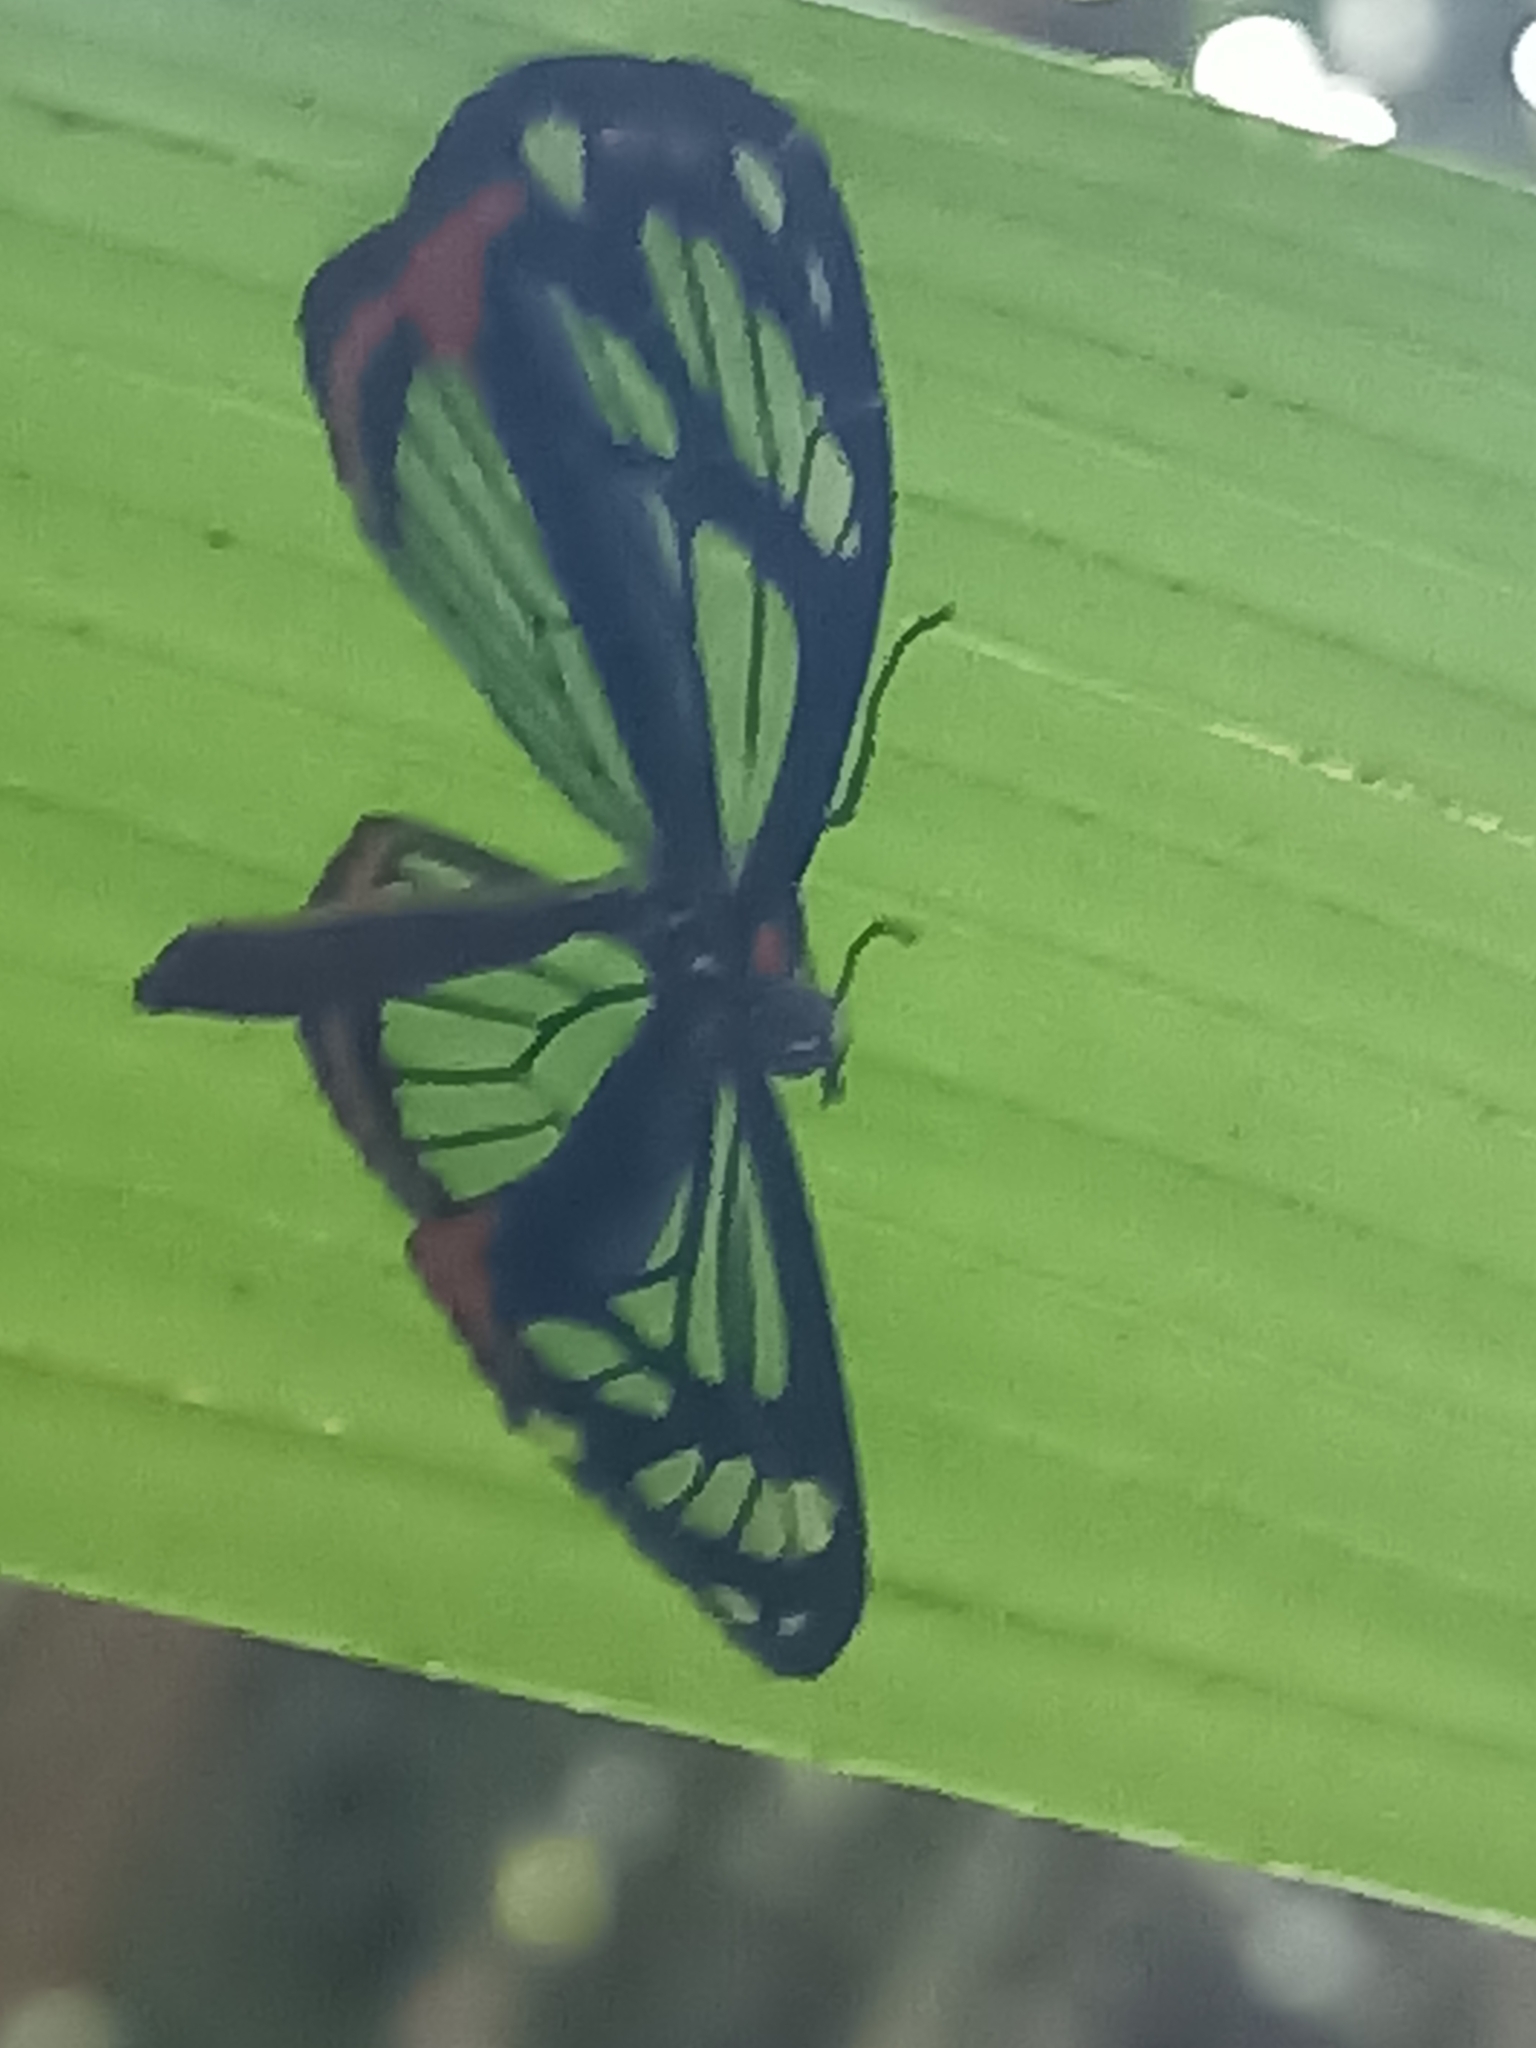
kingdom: Animalia
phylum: Arthropoda
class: Insecta
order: Lepidoptera
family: Riodinidae
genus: Stalachtis
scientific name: Stalachtis phaedusa
